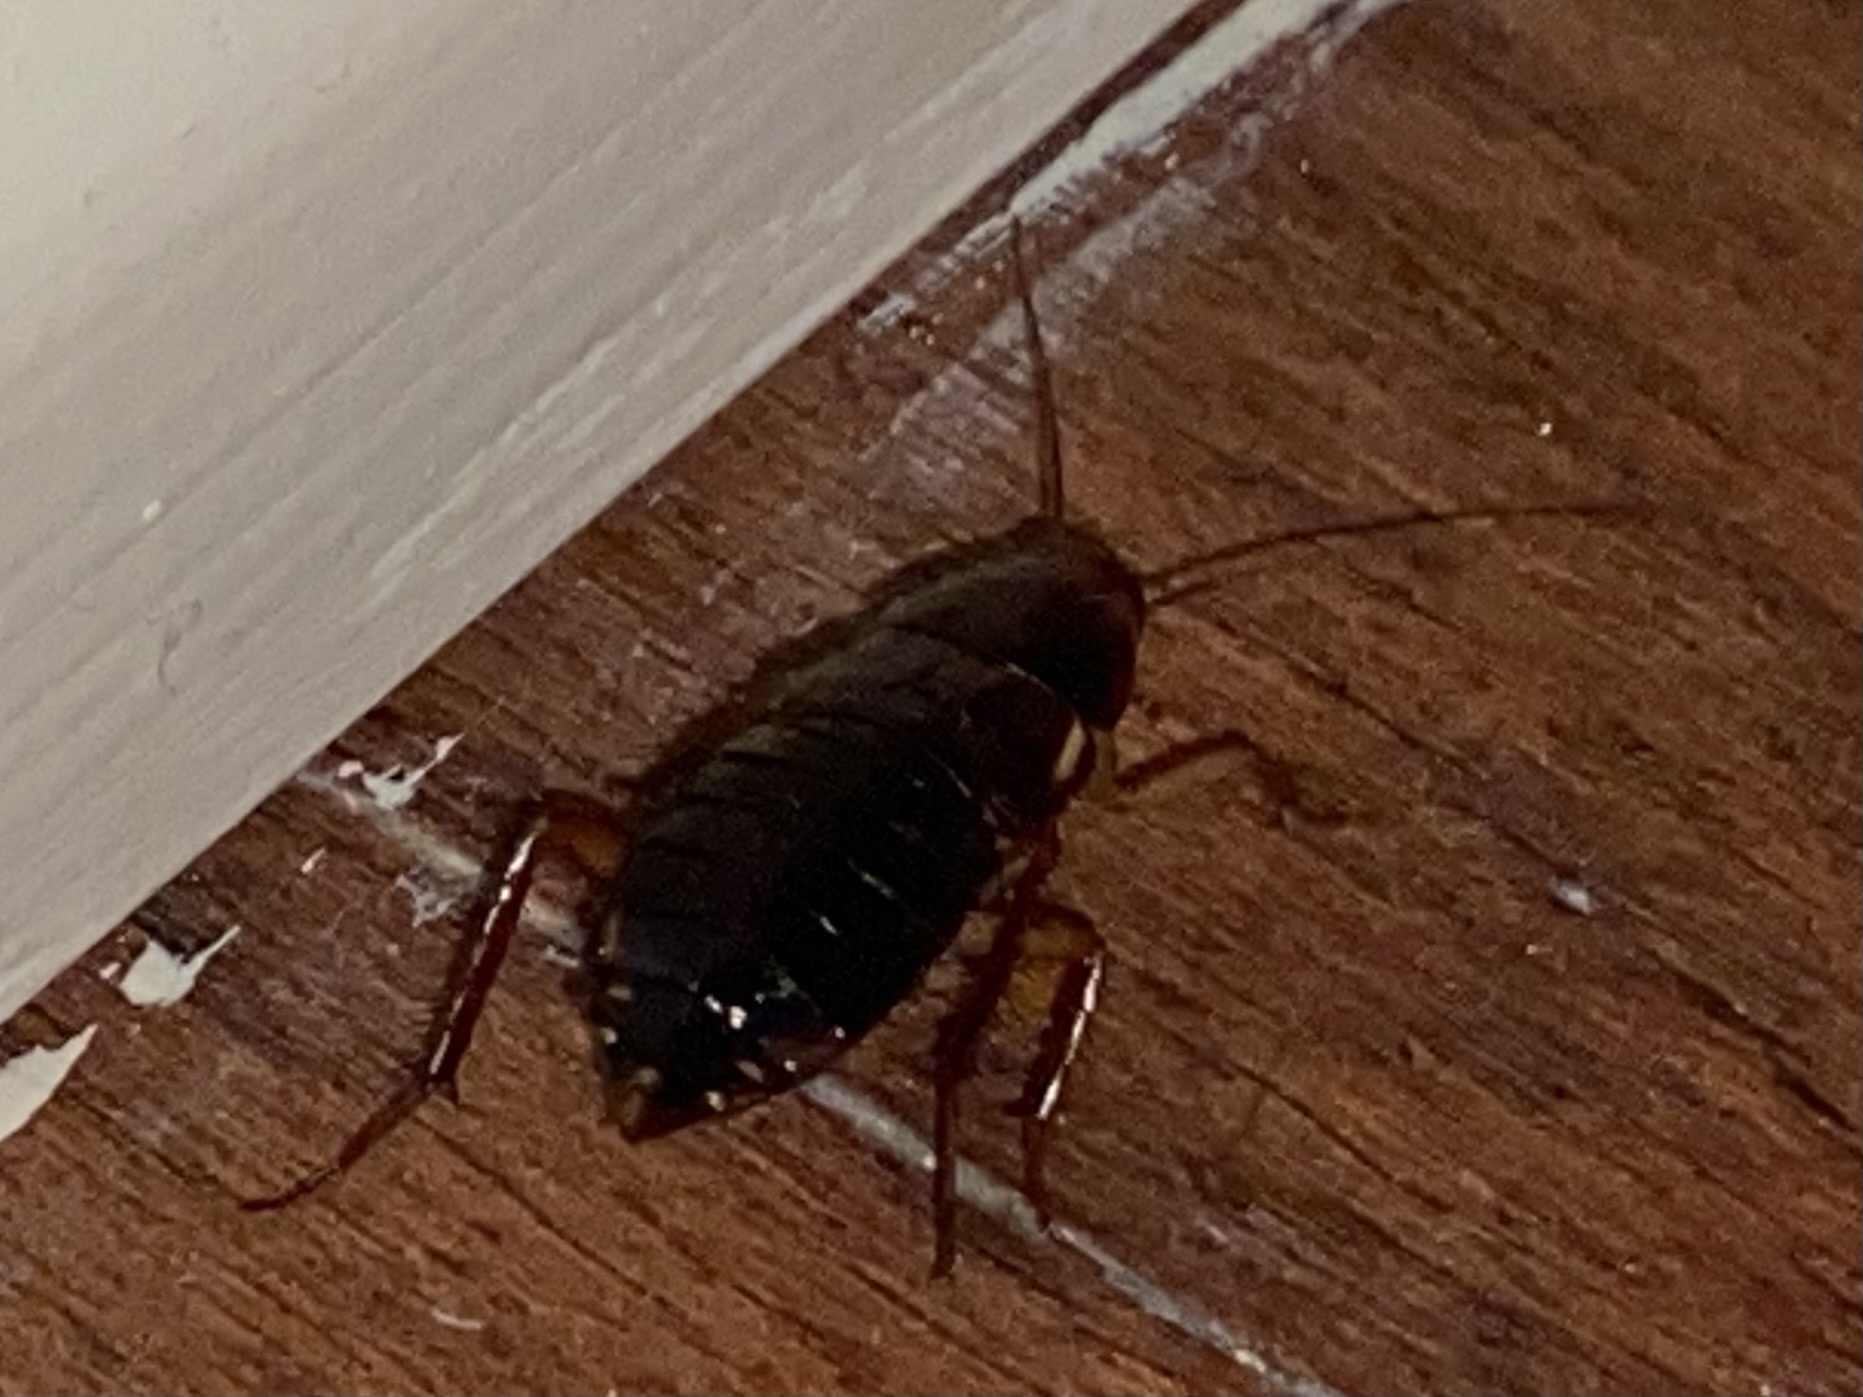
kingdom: Animalia
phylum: Arthropoda
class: Insecta
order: Blattodea
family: Blattidae
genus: Blatta
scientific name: Blatta orientalis
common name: Oriental cockroach
